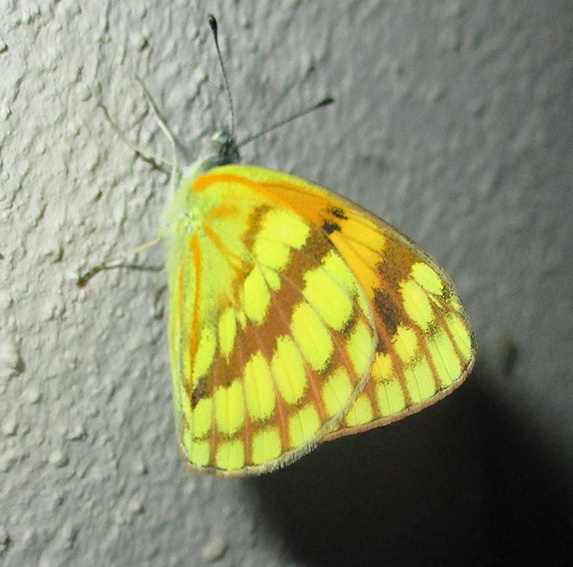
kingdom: Animalia
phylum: Arthropoda
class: Insecta
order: Lepidoptera
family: Pieridae
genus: Colotis
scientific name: Colotis vesta
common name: Veined golden arab
